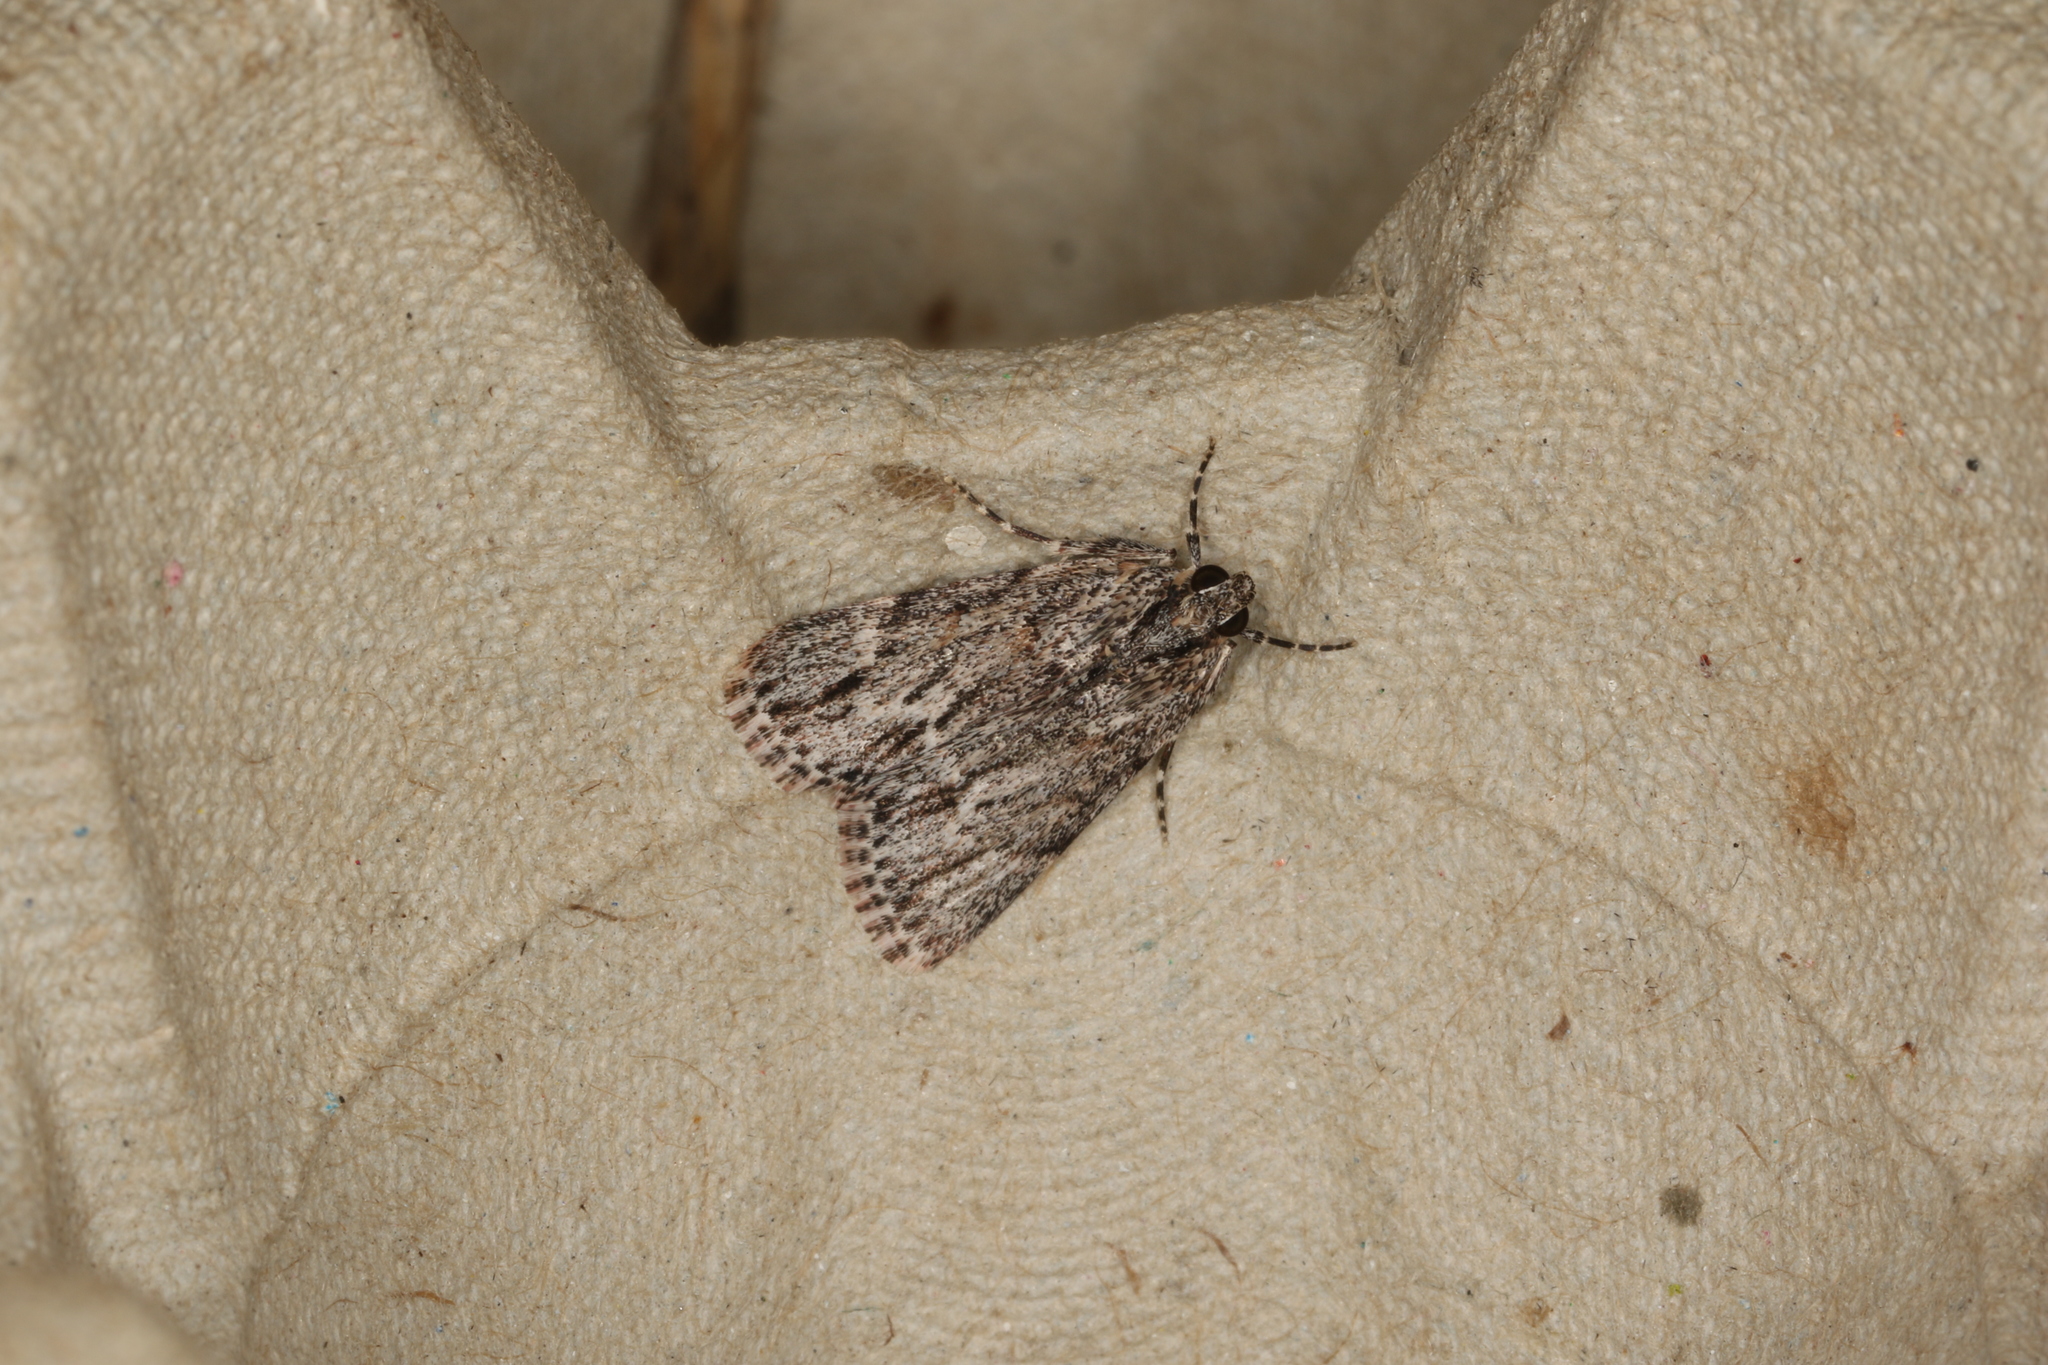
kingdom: Animalia
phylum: Arthropoda
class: Insecta
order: Lepidoptera
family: Pyralidae
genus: Spectrotrota
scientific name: Spectrotrota fimbrialis
